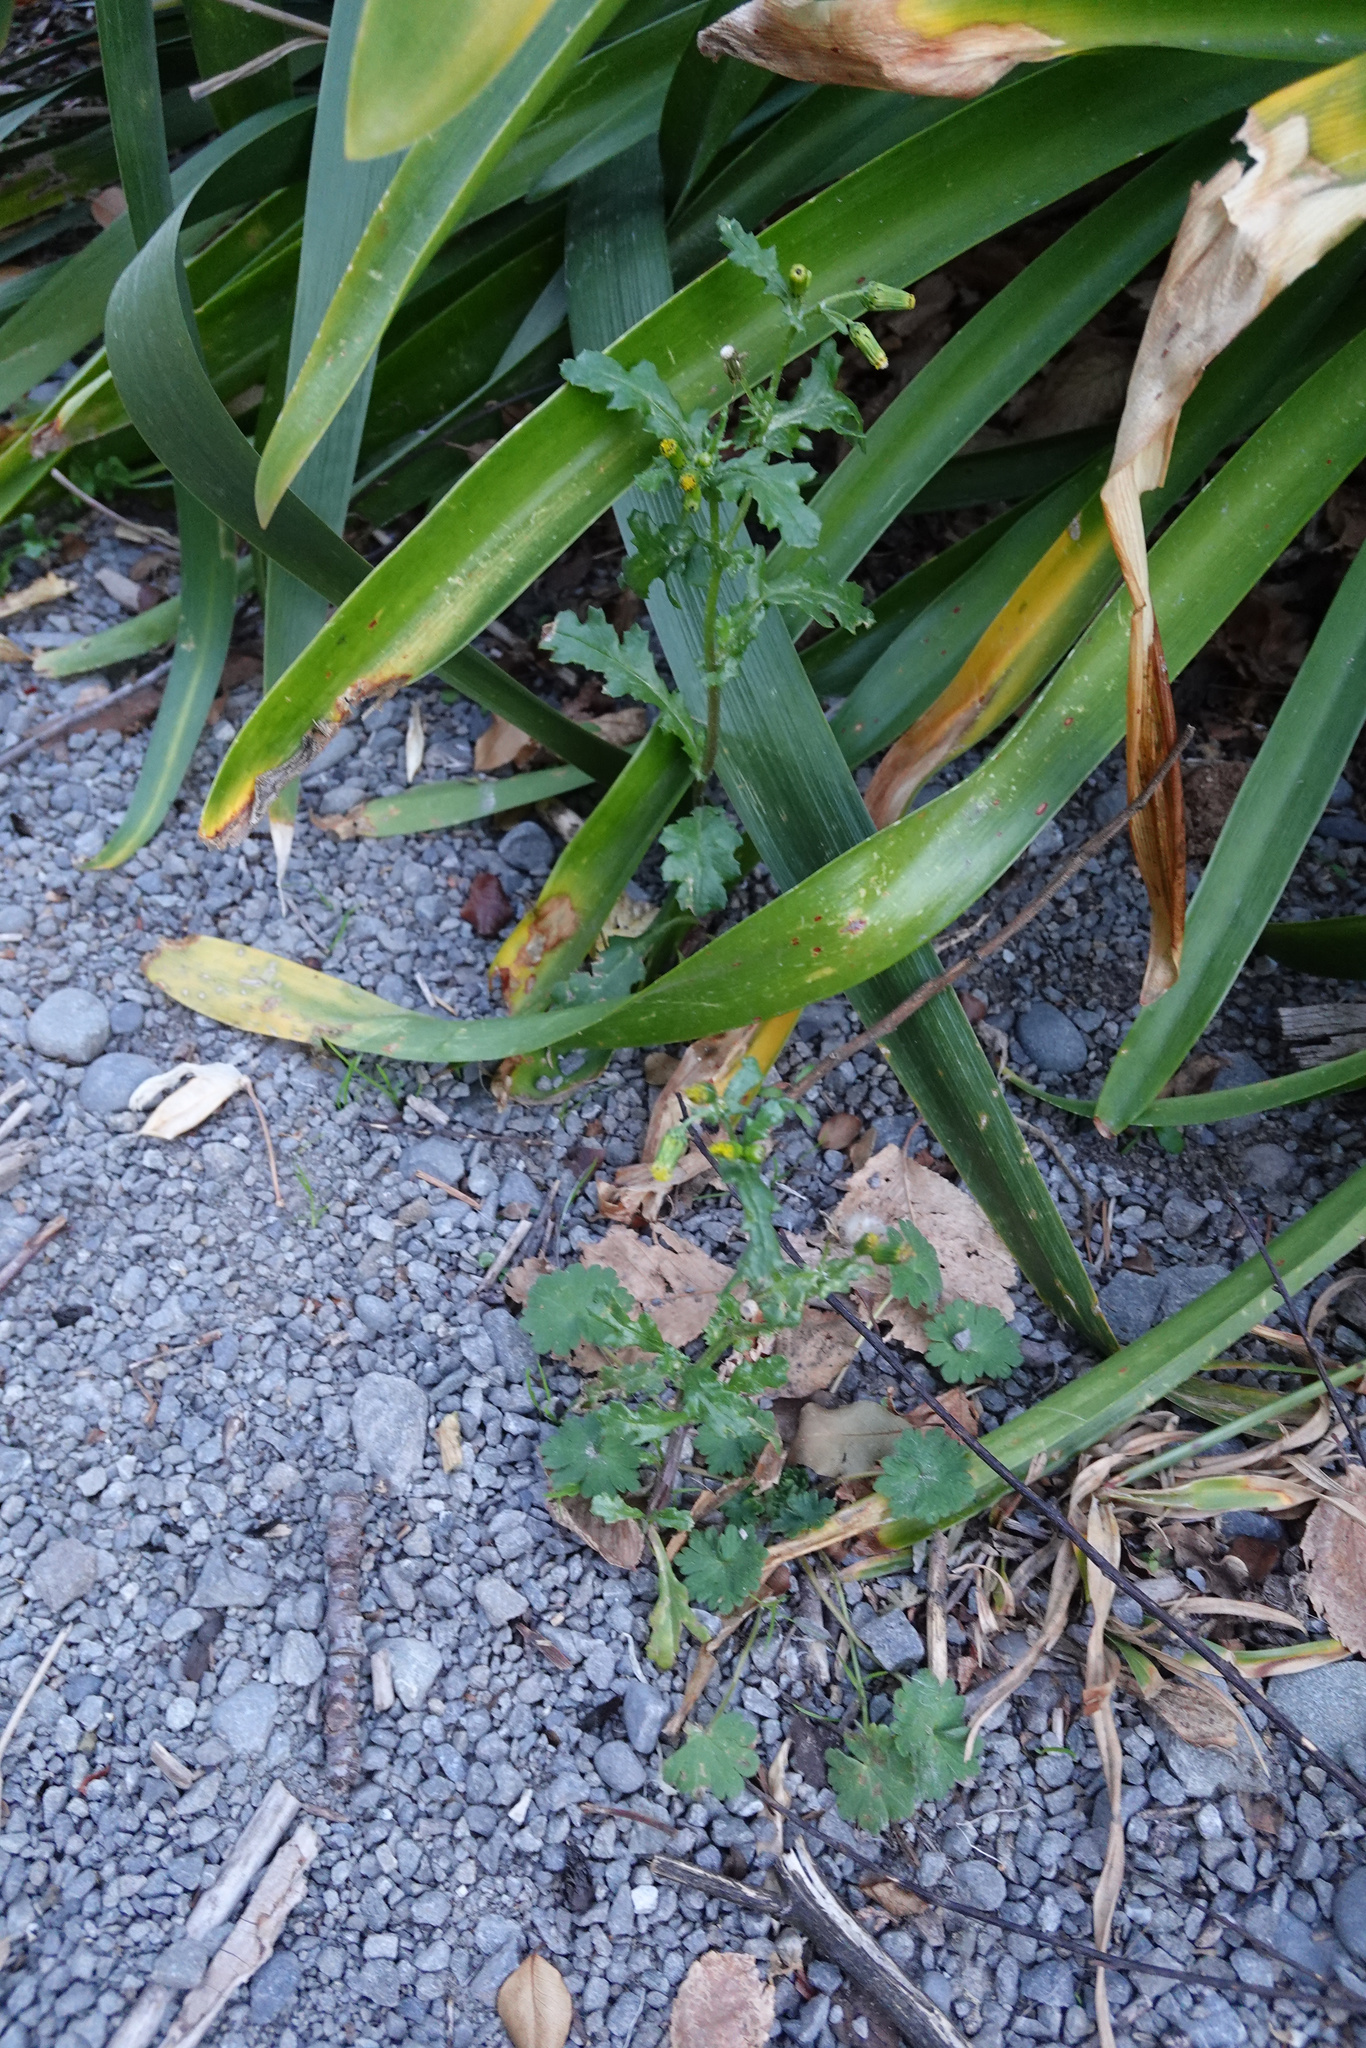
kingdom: Plantae
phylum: Tracheophyta
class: Magnoliopsida
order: Asterales
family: Asteraceae
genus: Senecio
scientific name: Senecio vulgaris
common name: Old-man-in-the-spring
